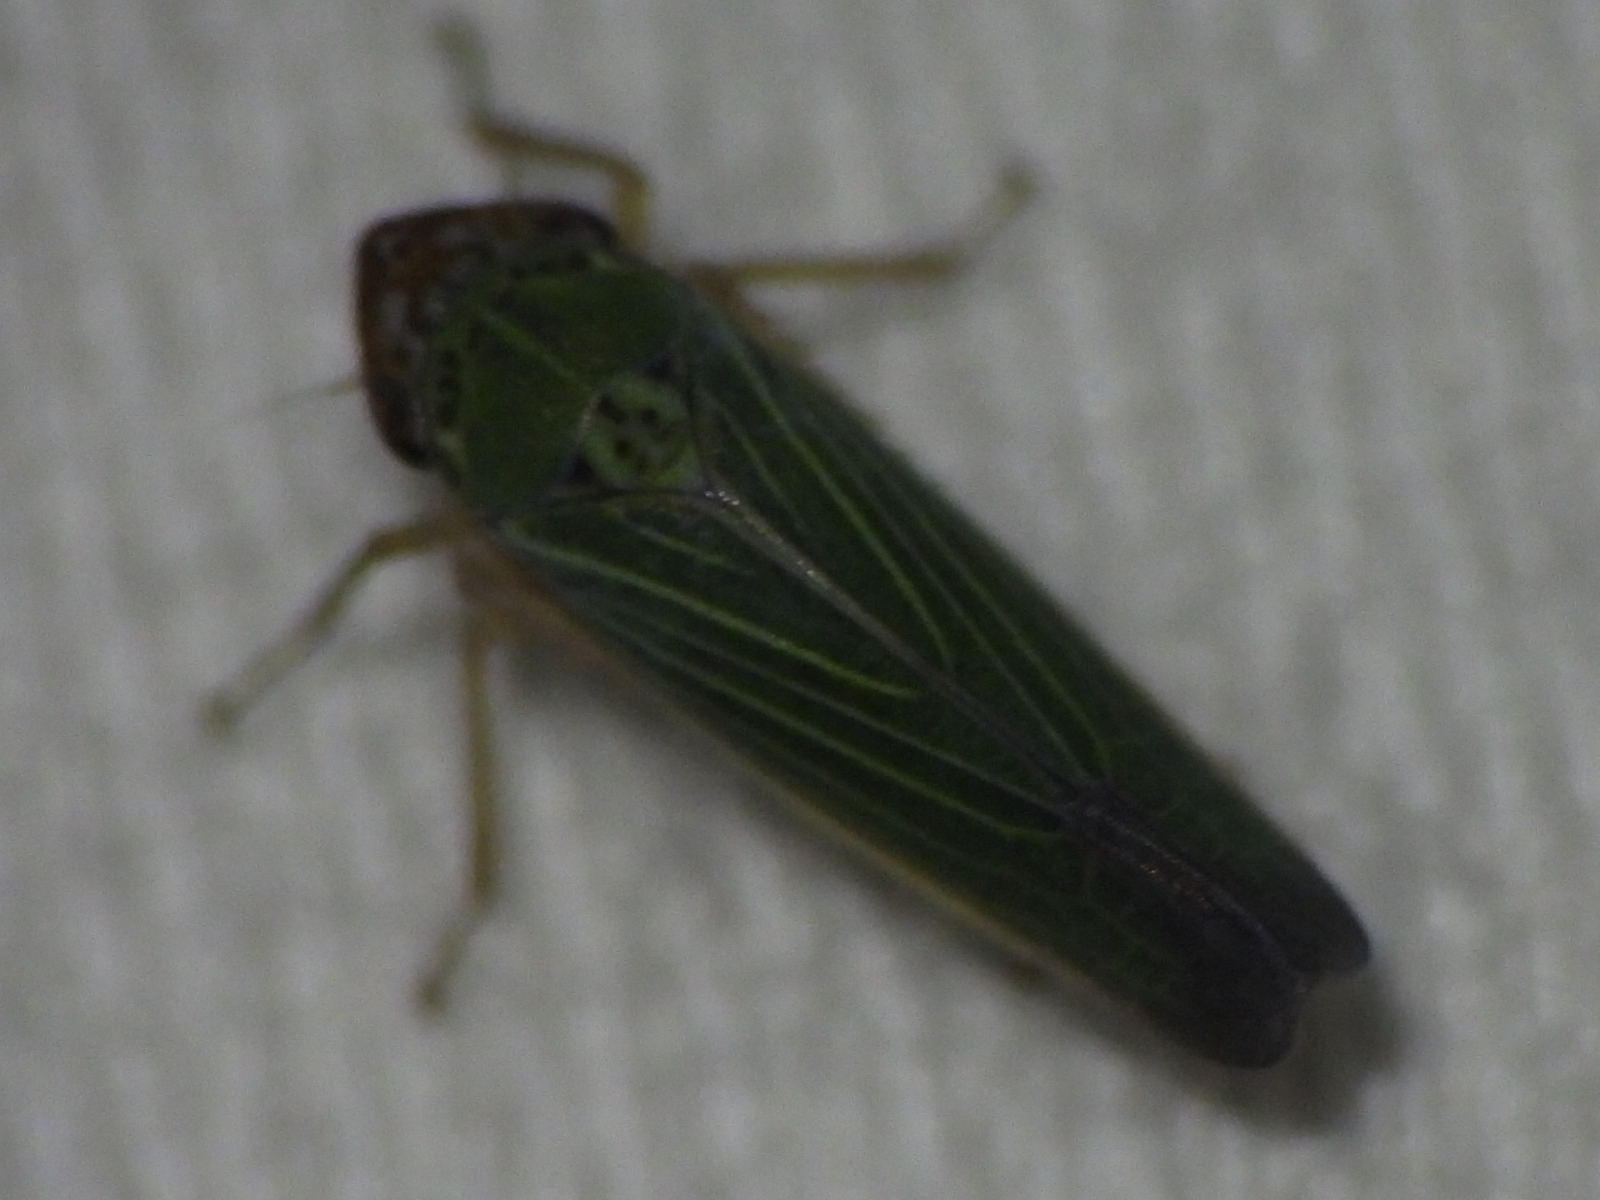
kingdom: Animalia
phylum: Arthropoda
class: Insecta
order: Hemiptera
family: Cicadellidae
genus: Xyphon
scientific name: Xyphon reticulatum
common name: Planthopper
